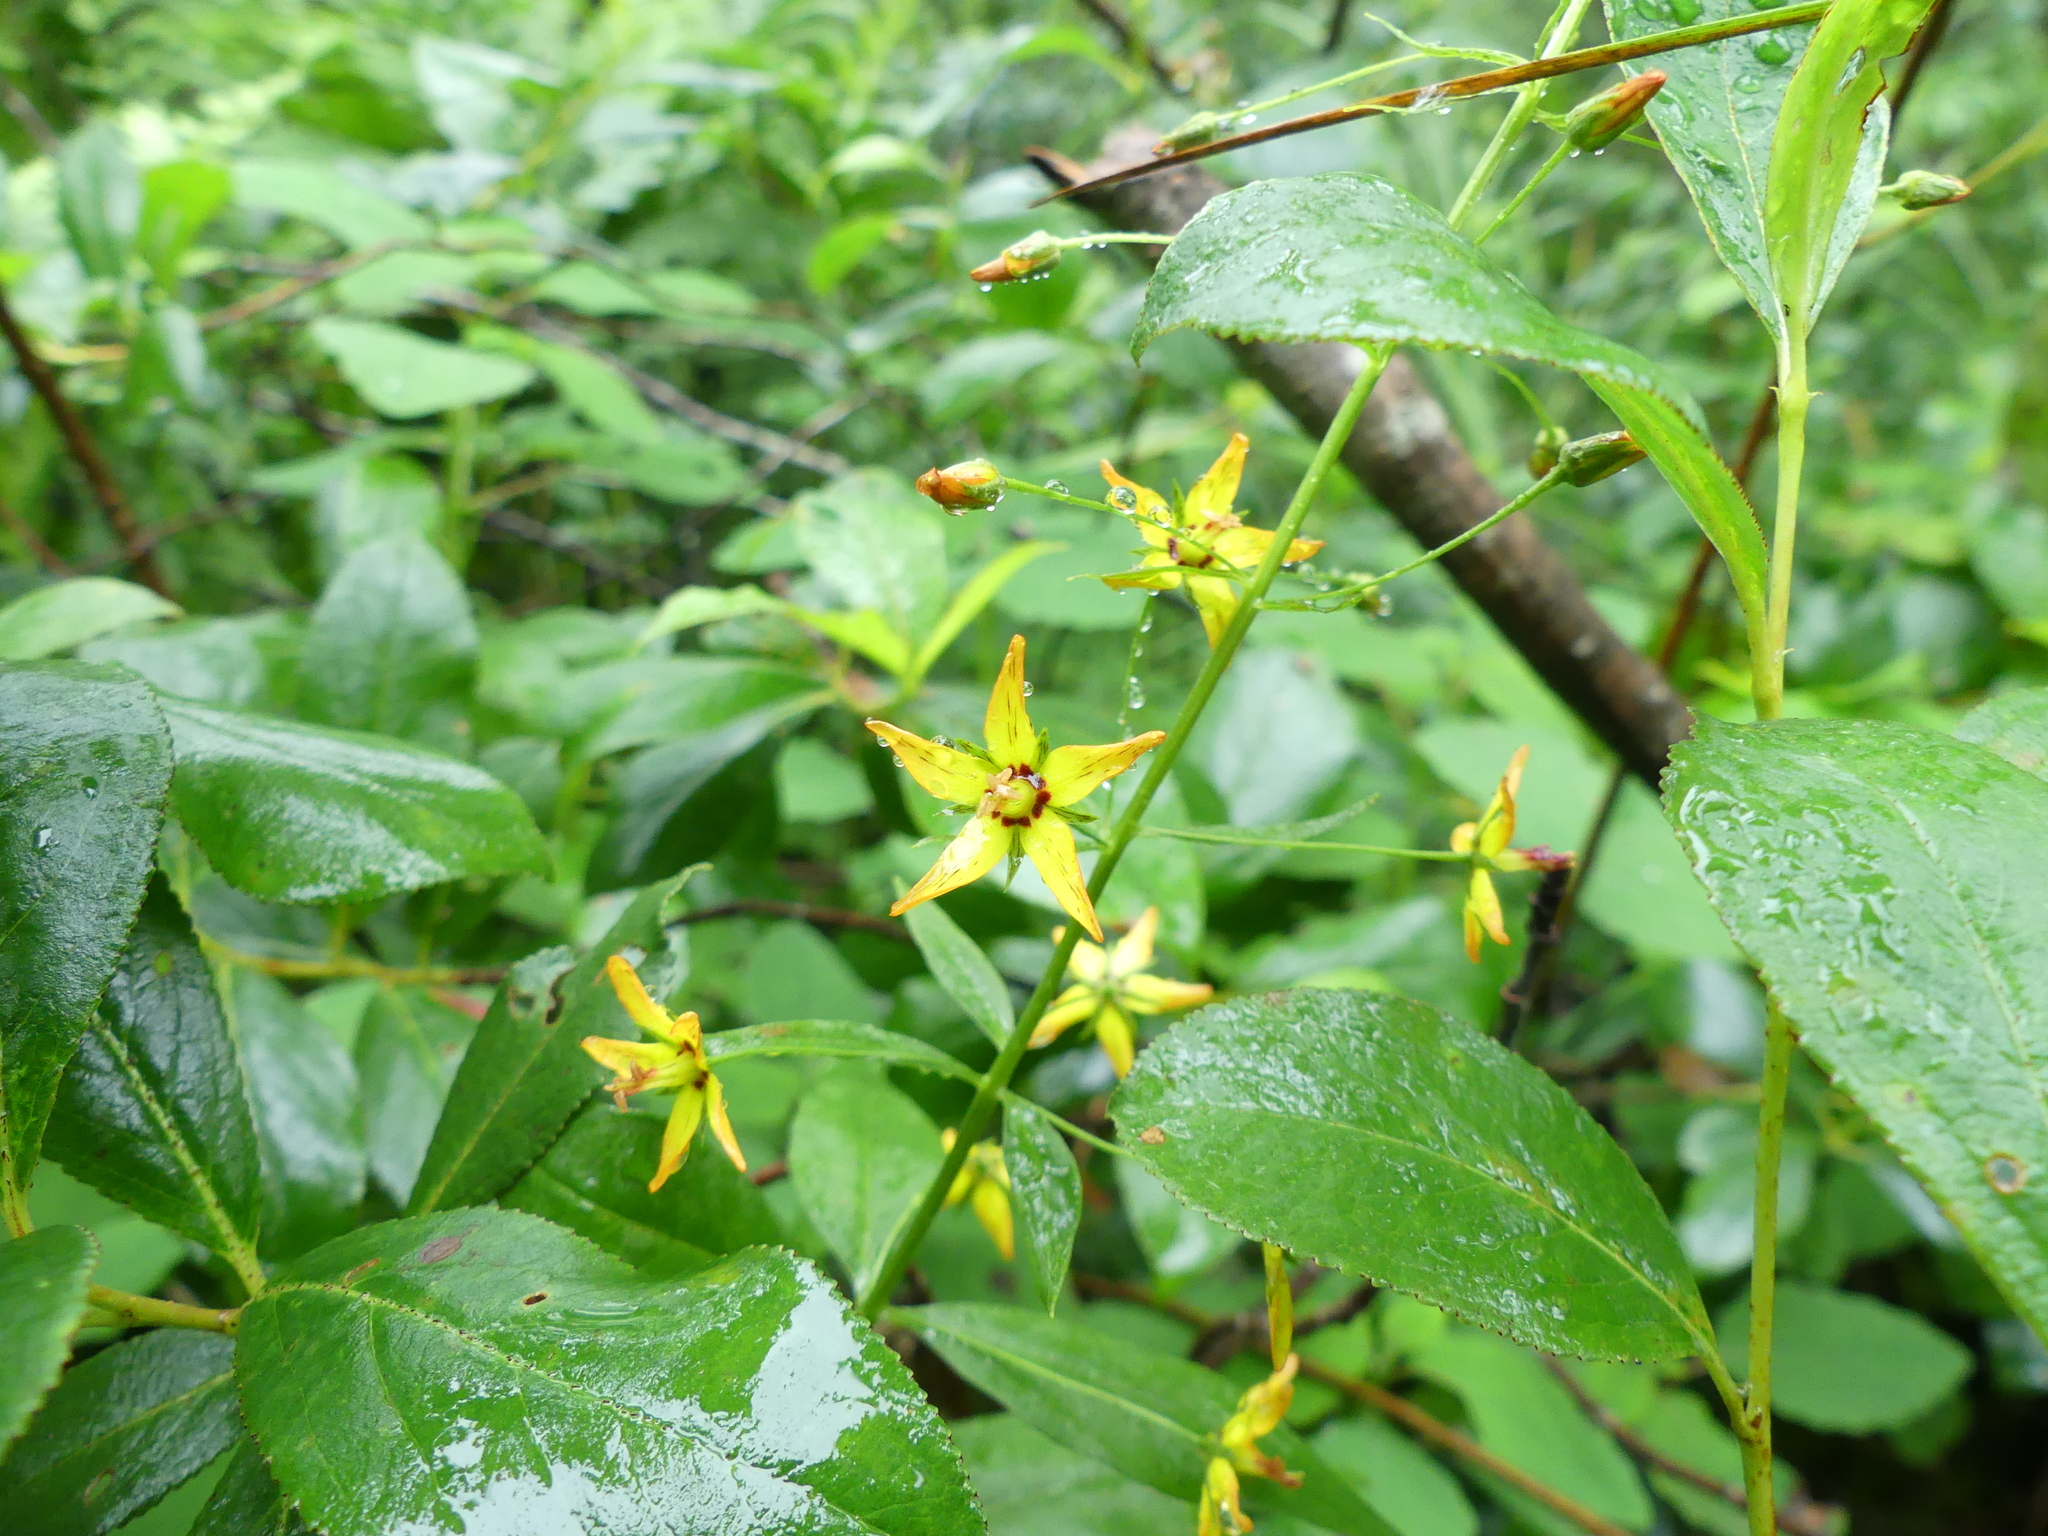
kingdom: Plantae
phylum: Tracheophyta
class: Magnoliopsida
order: Ericales
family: Primulaceae
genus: Lysimachia
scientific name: Lysimachia terrestris
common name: Lake loosestrife
